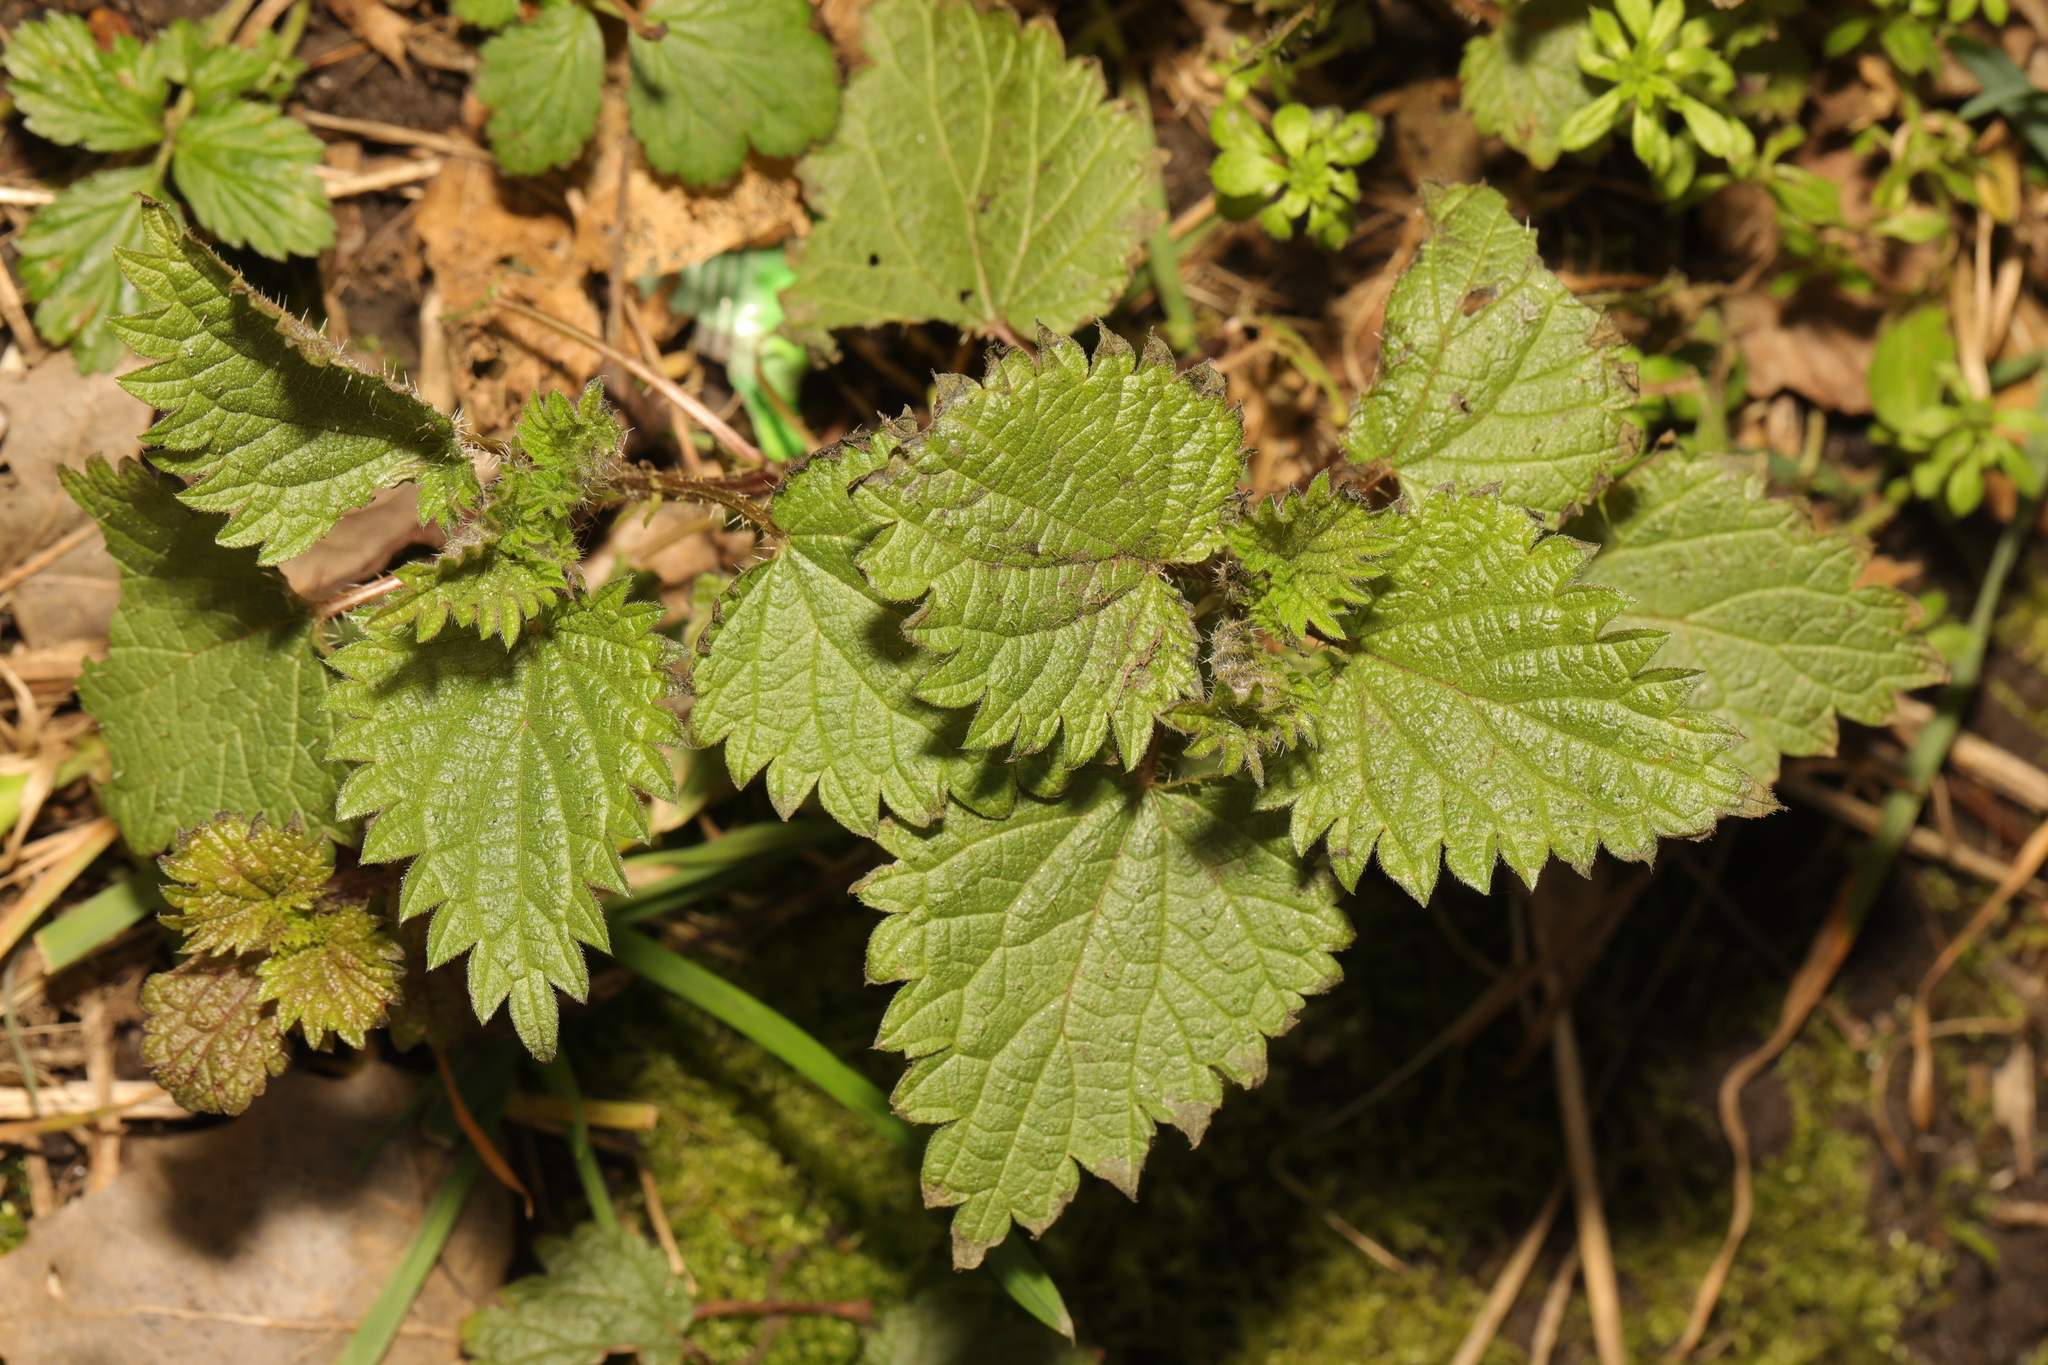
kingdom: Plantae
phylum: Tracheophyta
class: Magnoliopsida
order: Rosales
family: Urticaceae
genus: Urtica
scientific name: Urtica dioica
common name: Common nettle
